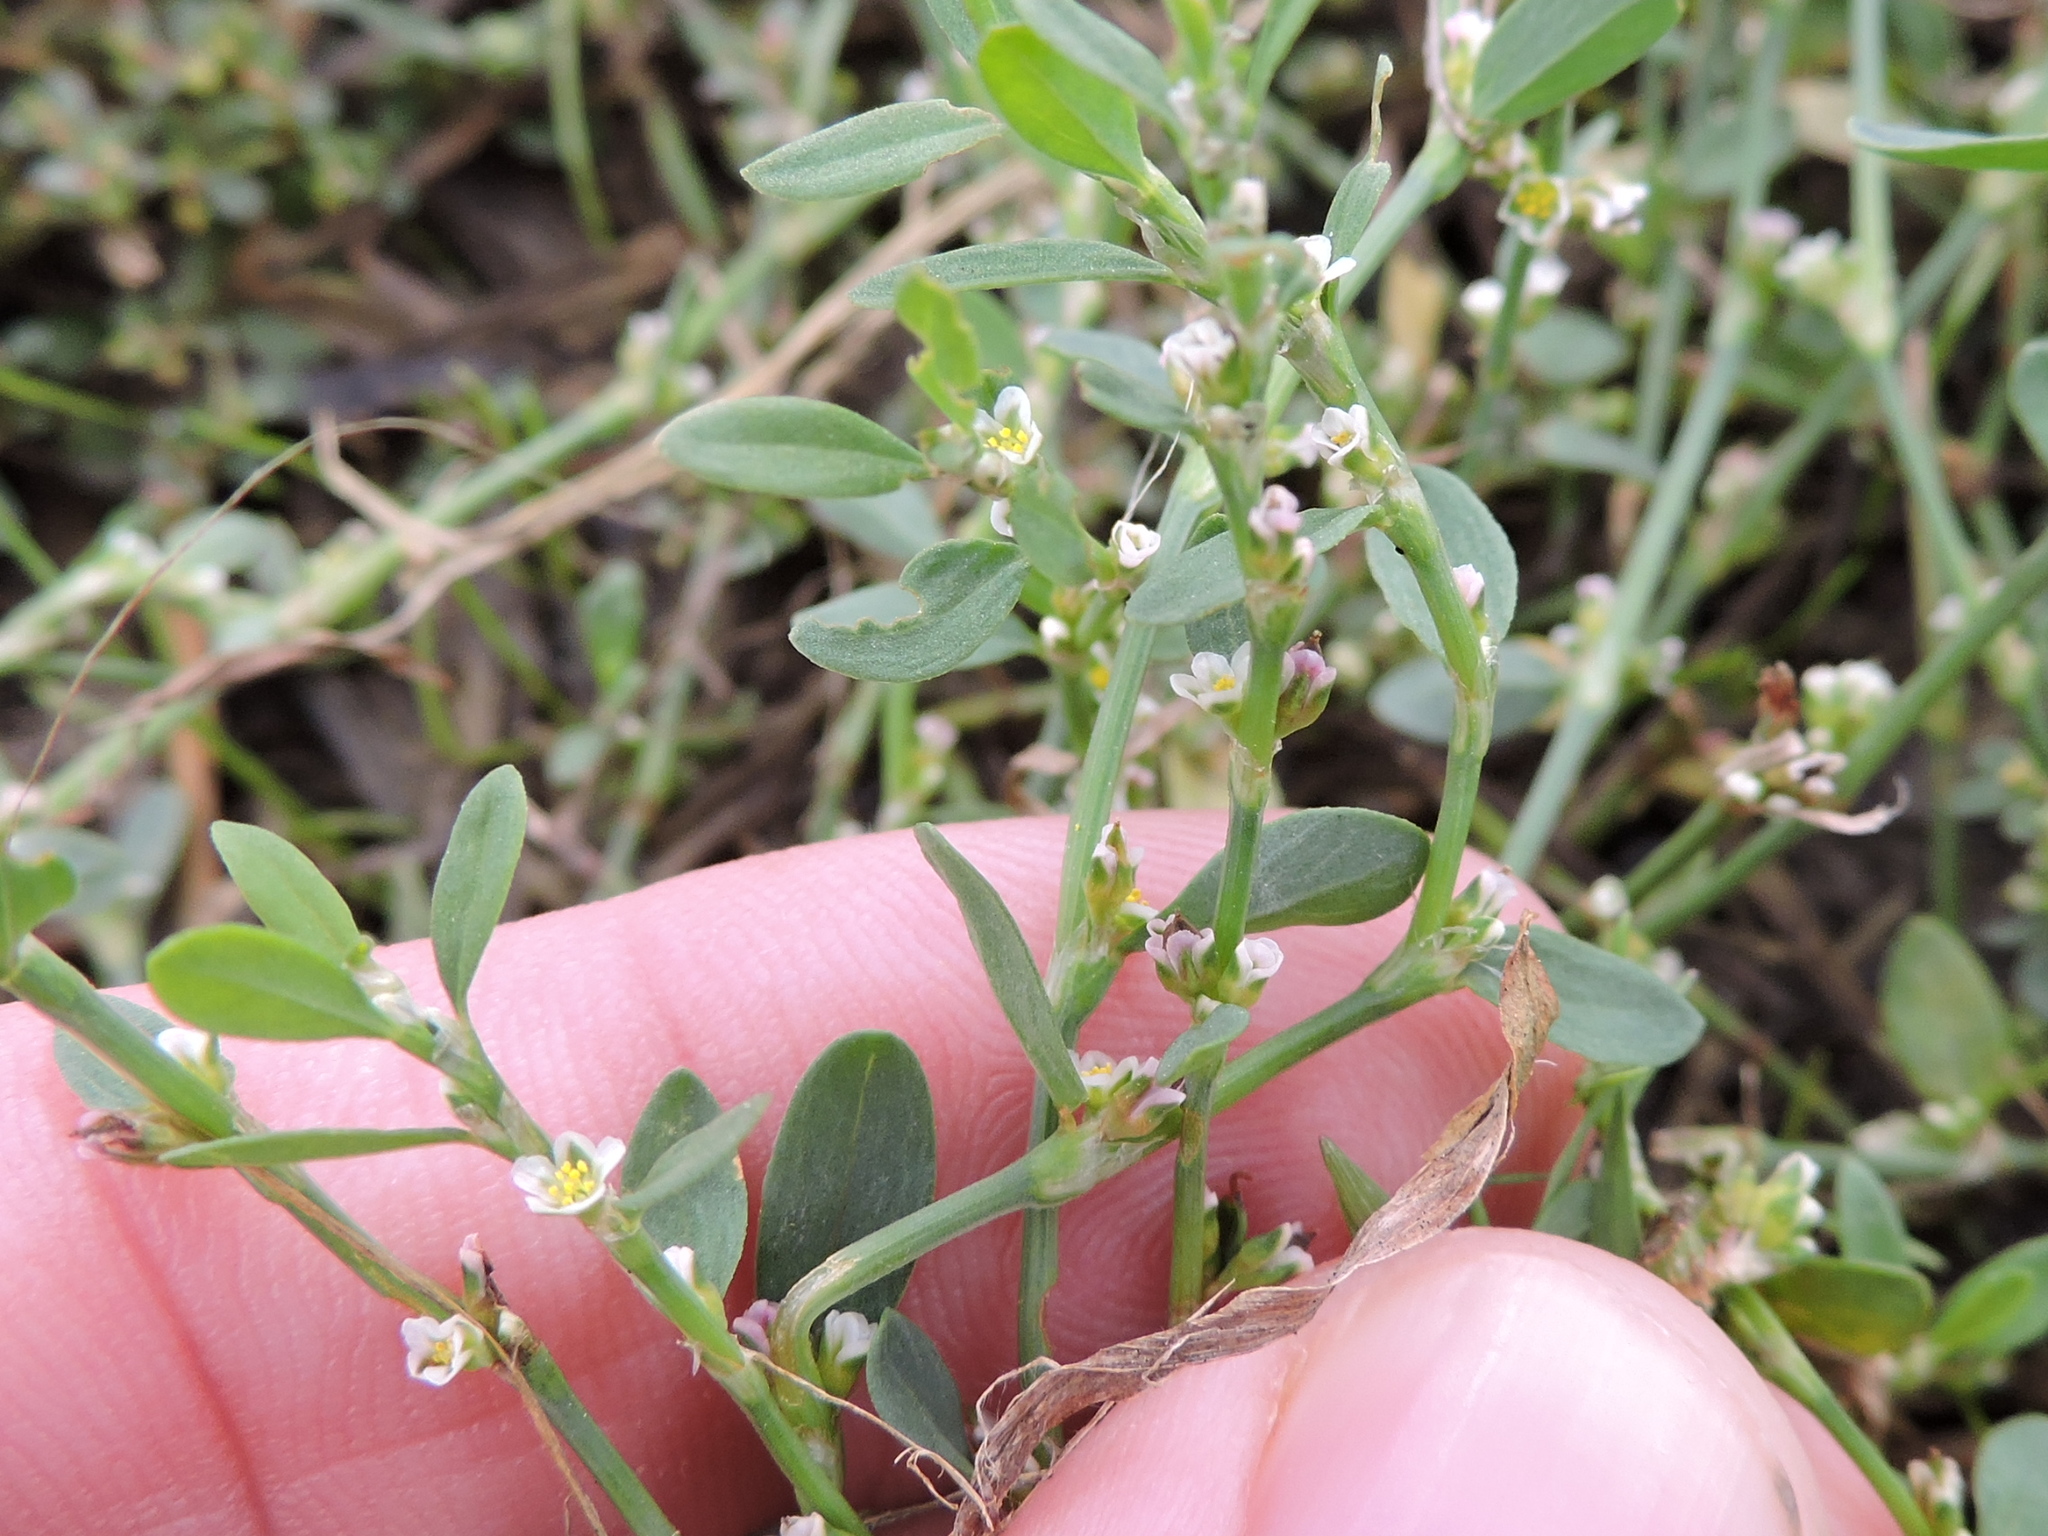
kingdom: Plantae
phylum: Tracheophyta
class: Magnoliopsida
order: Caryophyllales
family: Polygonaceae
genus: Polygonum
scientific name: Polygonum aviculare
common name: Prostrate knotweed
